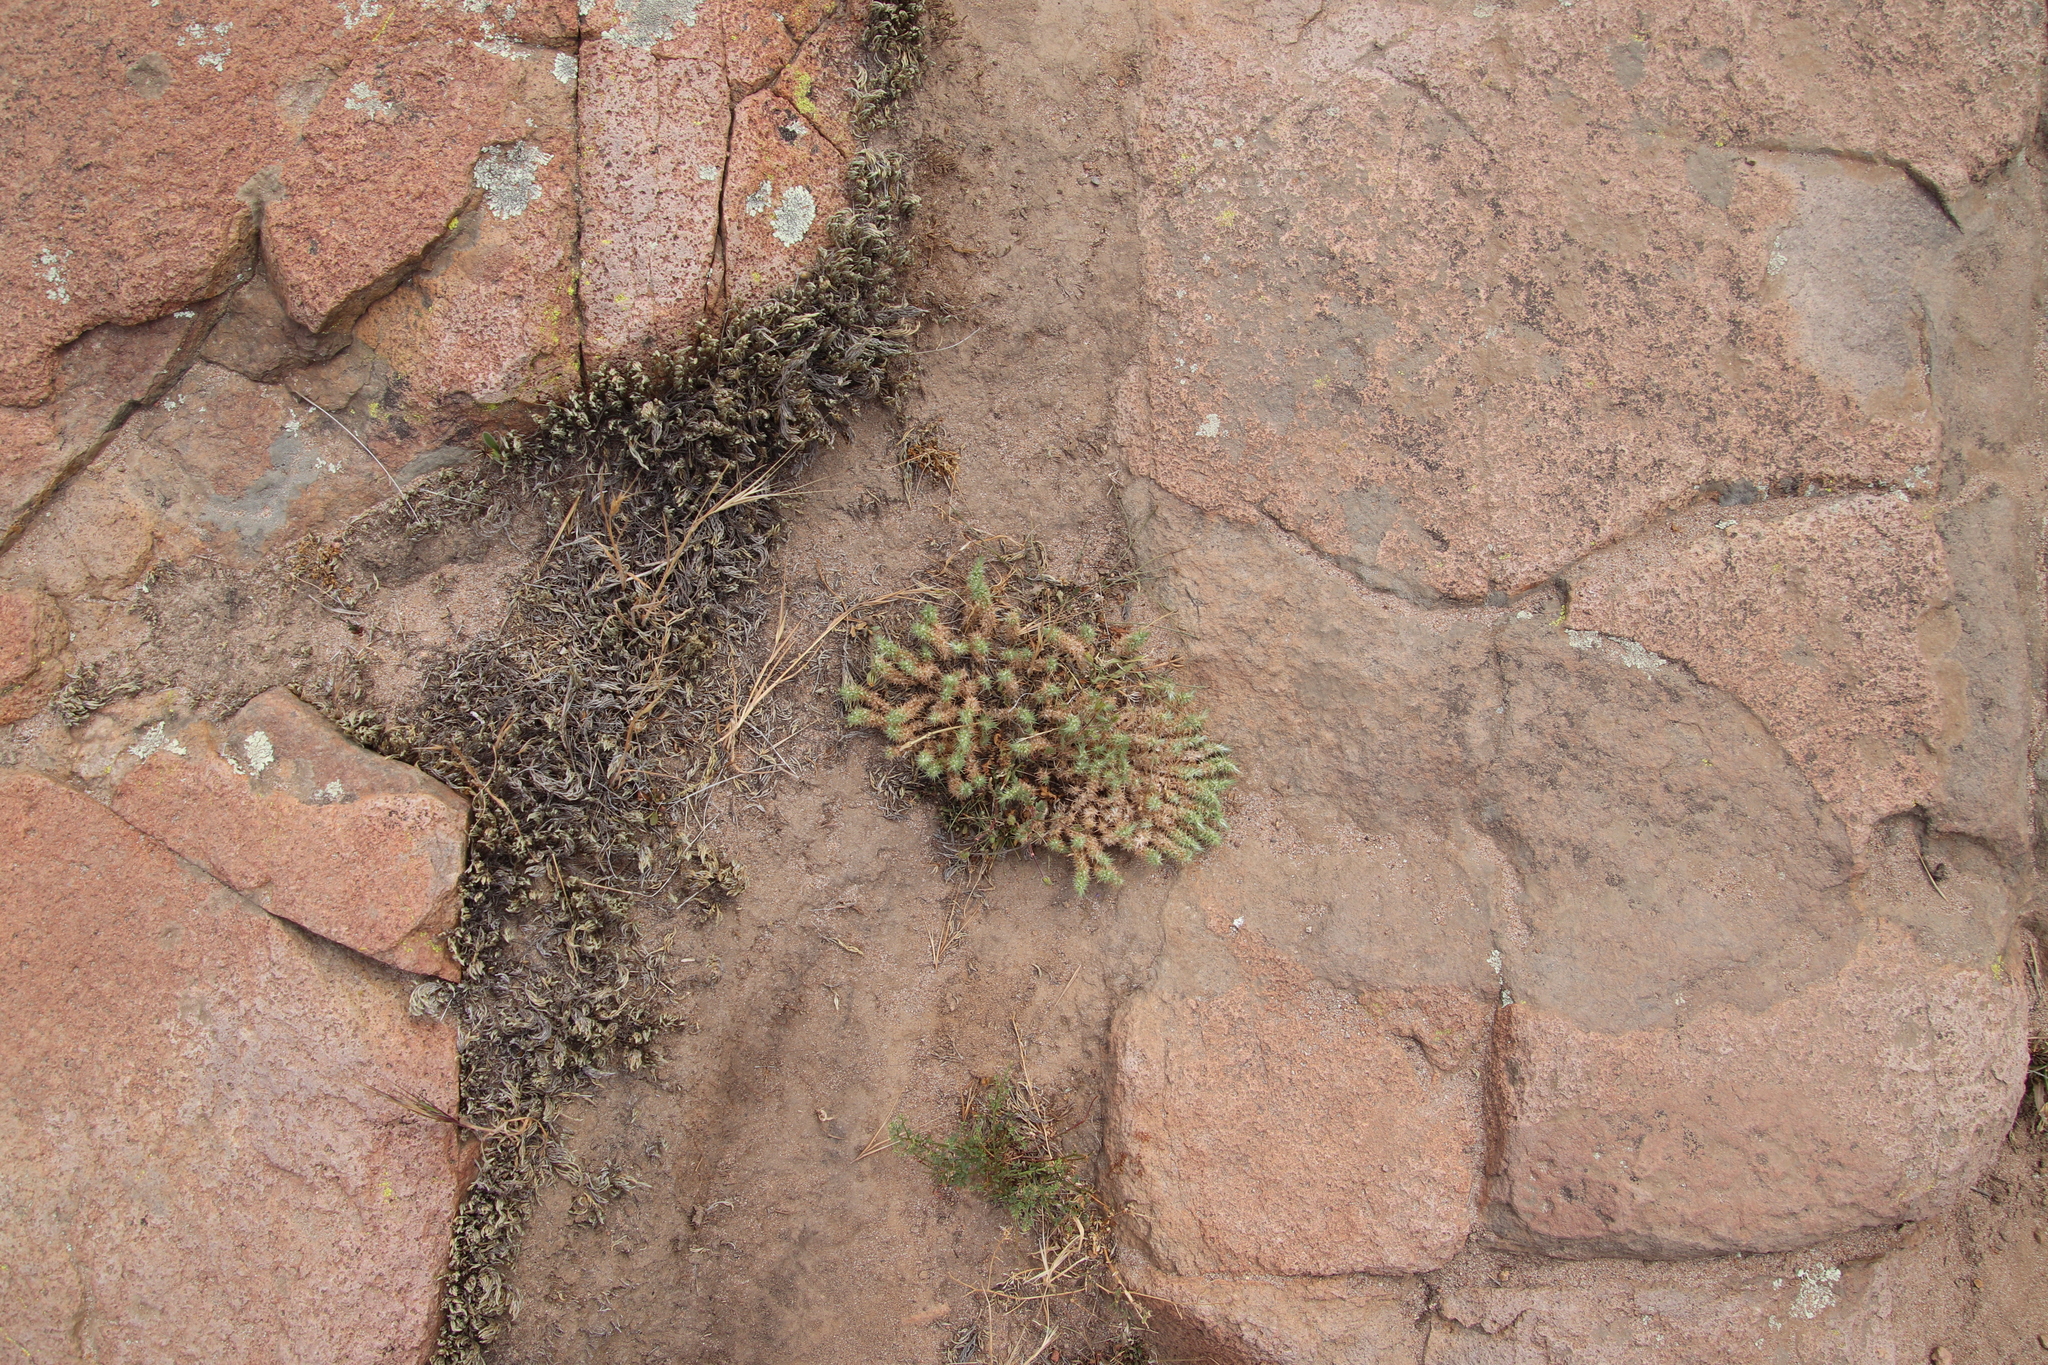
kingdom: Plantae
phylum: Tracheophyta
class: Magnoliopsida
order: Caryophyllales
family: Caryophyllaceae
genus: Cardionema
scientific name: Cardionema ramosissima
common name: Sandcarpet
